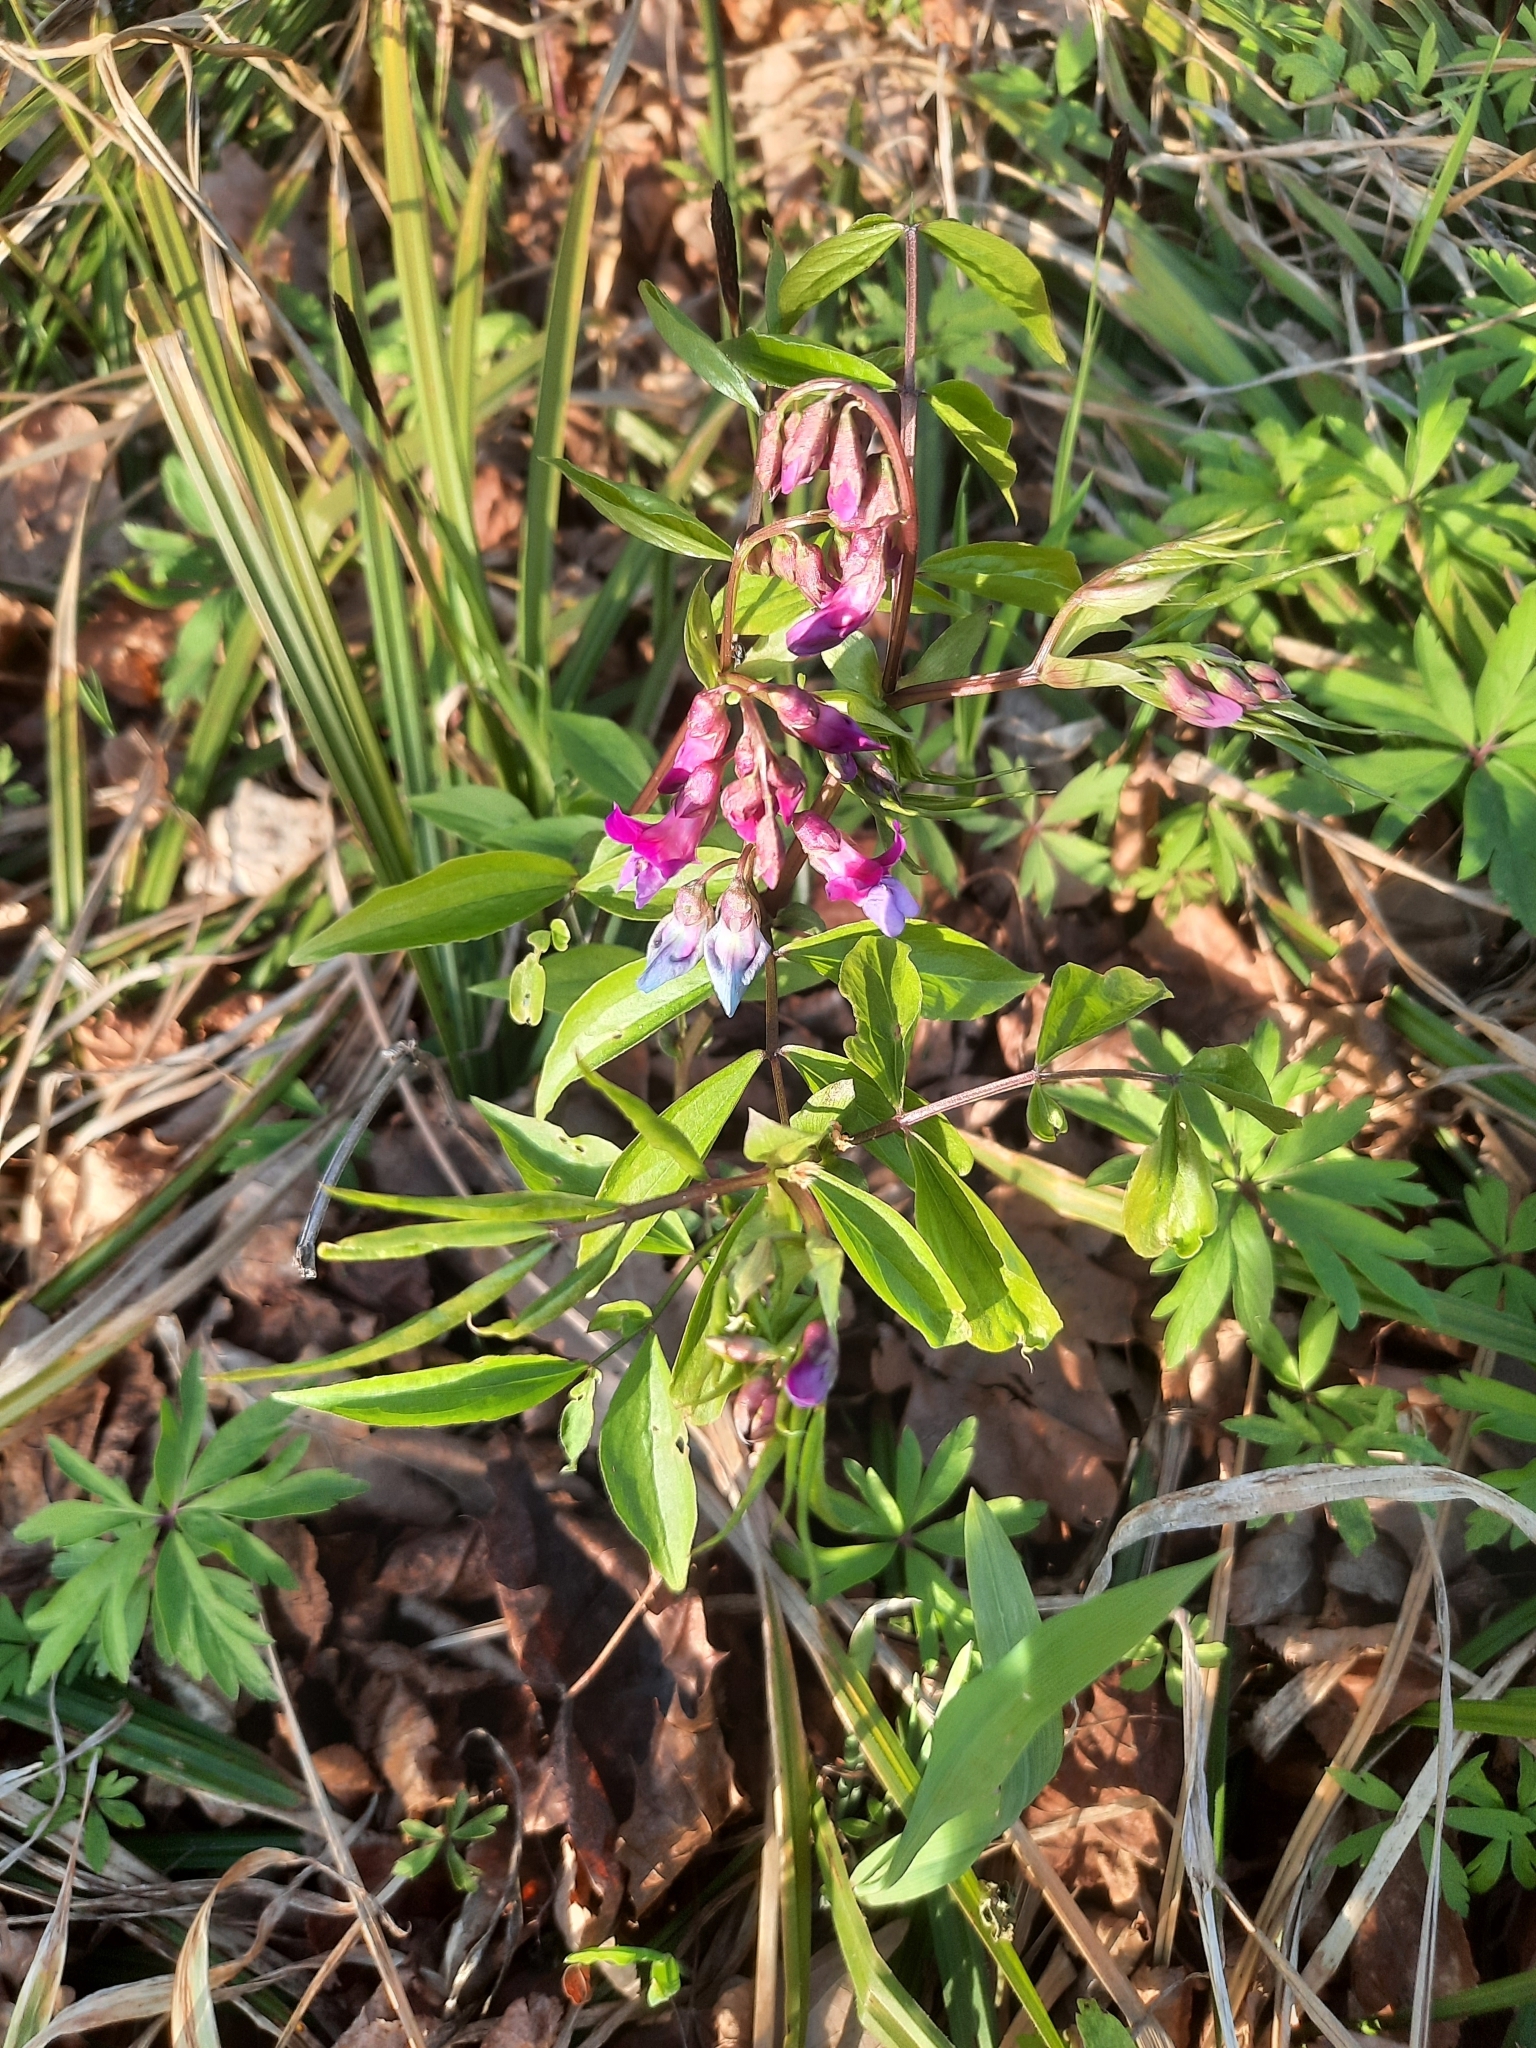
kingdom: Plantae
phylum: Tracheophyta
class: Magnoliopsida
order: Fabales
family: Fabaceae
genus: Lathyrus
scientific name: Lathyrus vernus
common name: Spring pea
